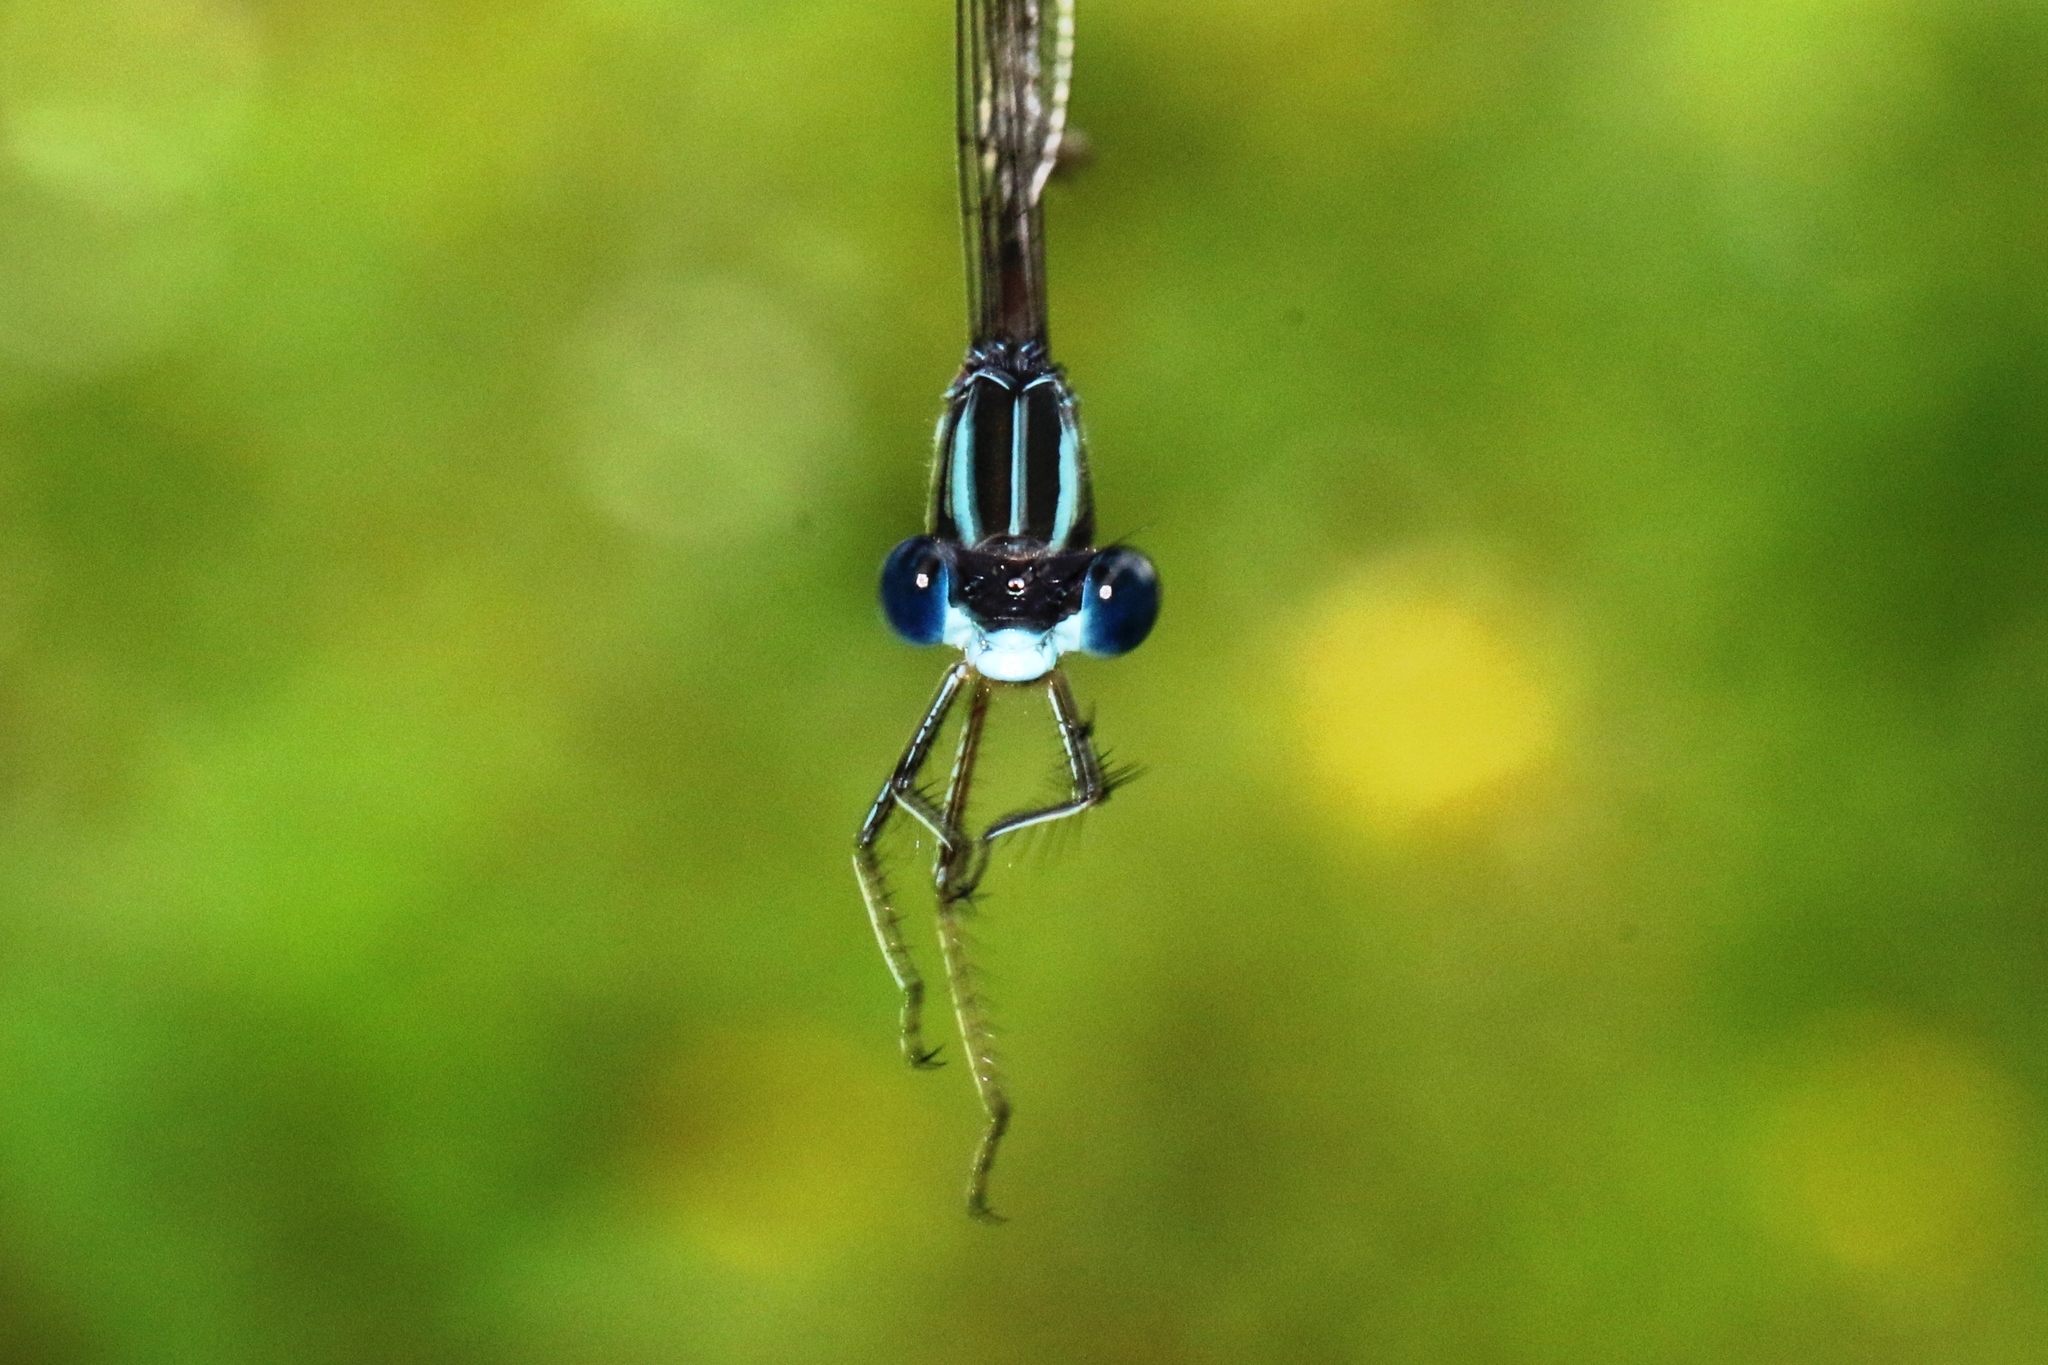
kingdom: Animalia
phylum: Arthropoda
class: Insecta
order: Odonata
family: Lestidae
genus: Lestes
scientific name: Lestes rectangularis
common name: Slender spreadwing
